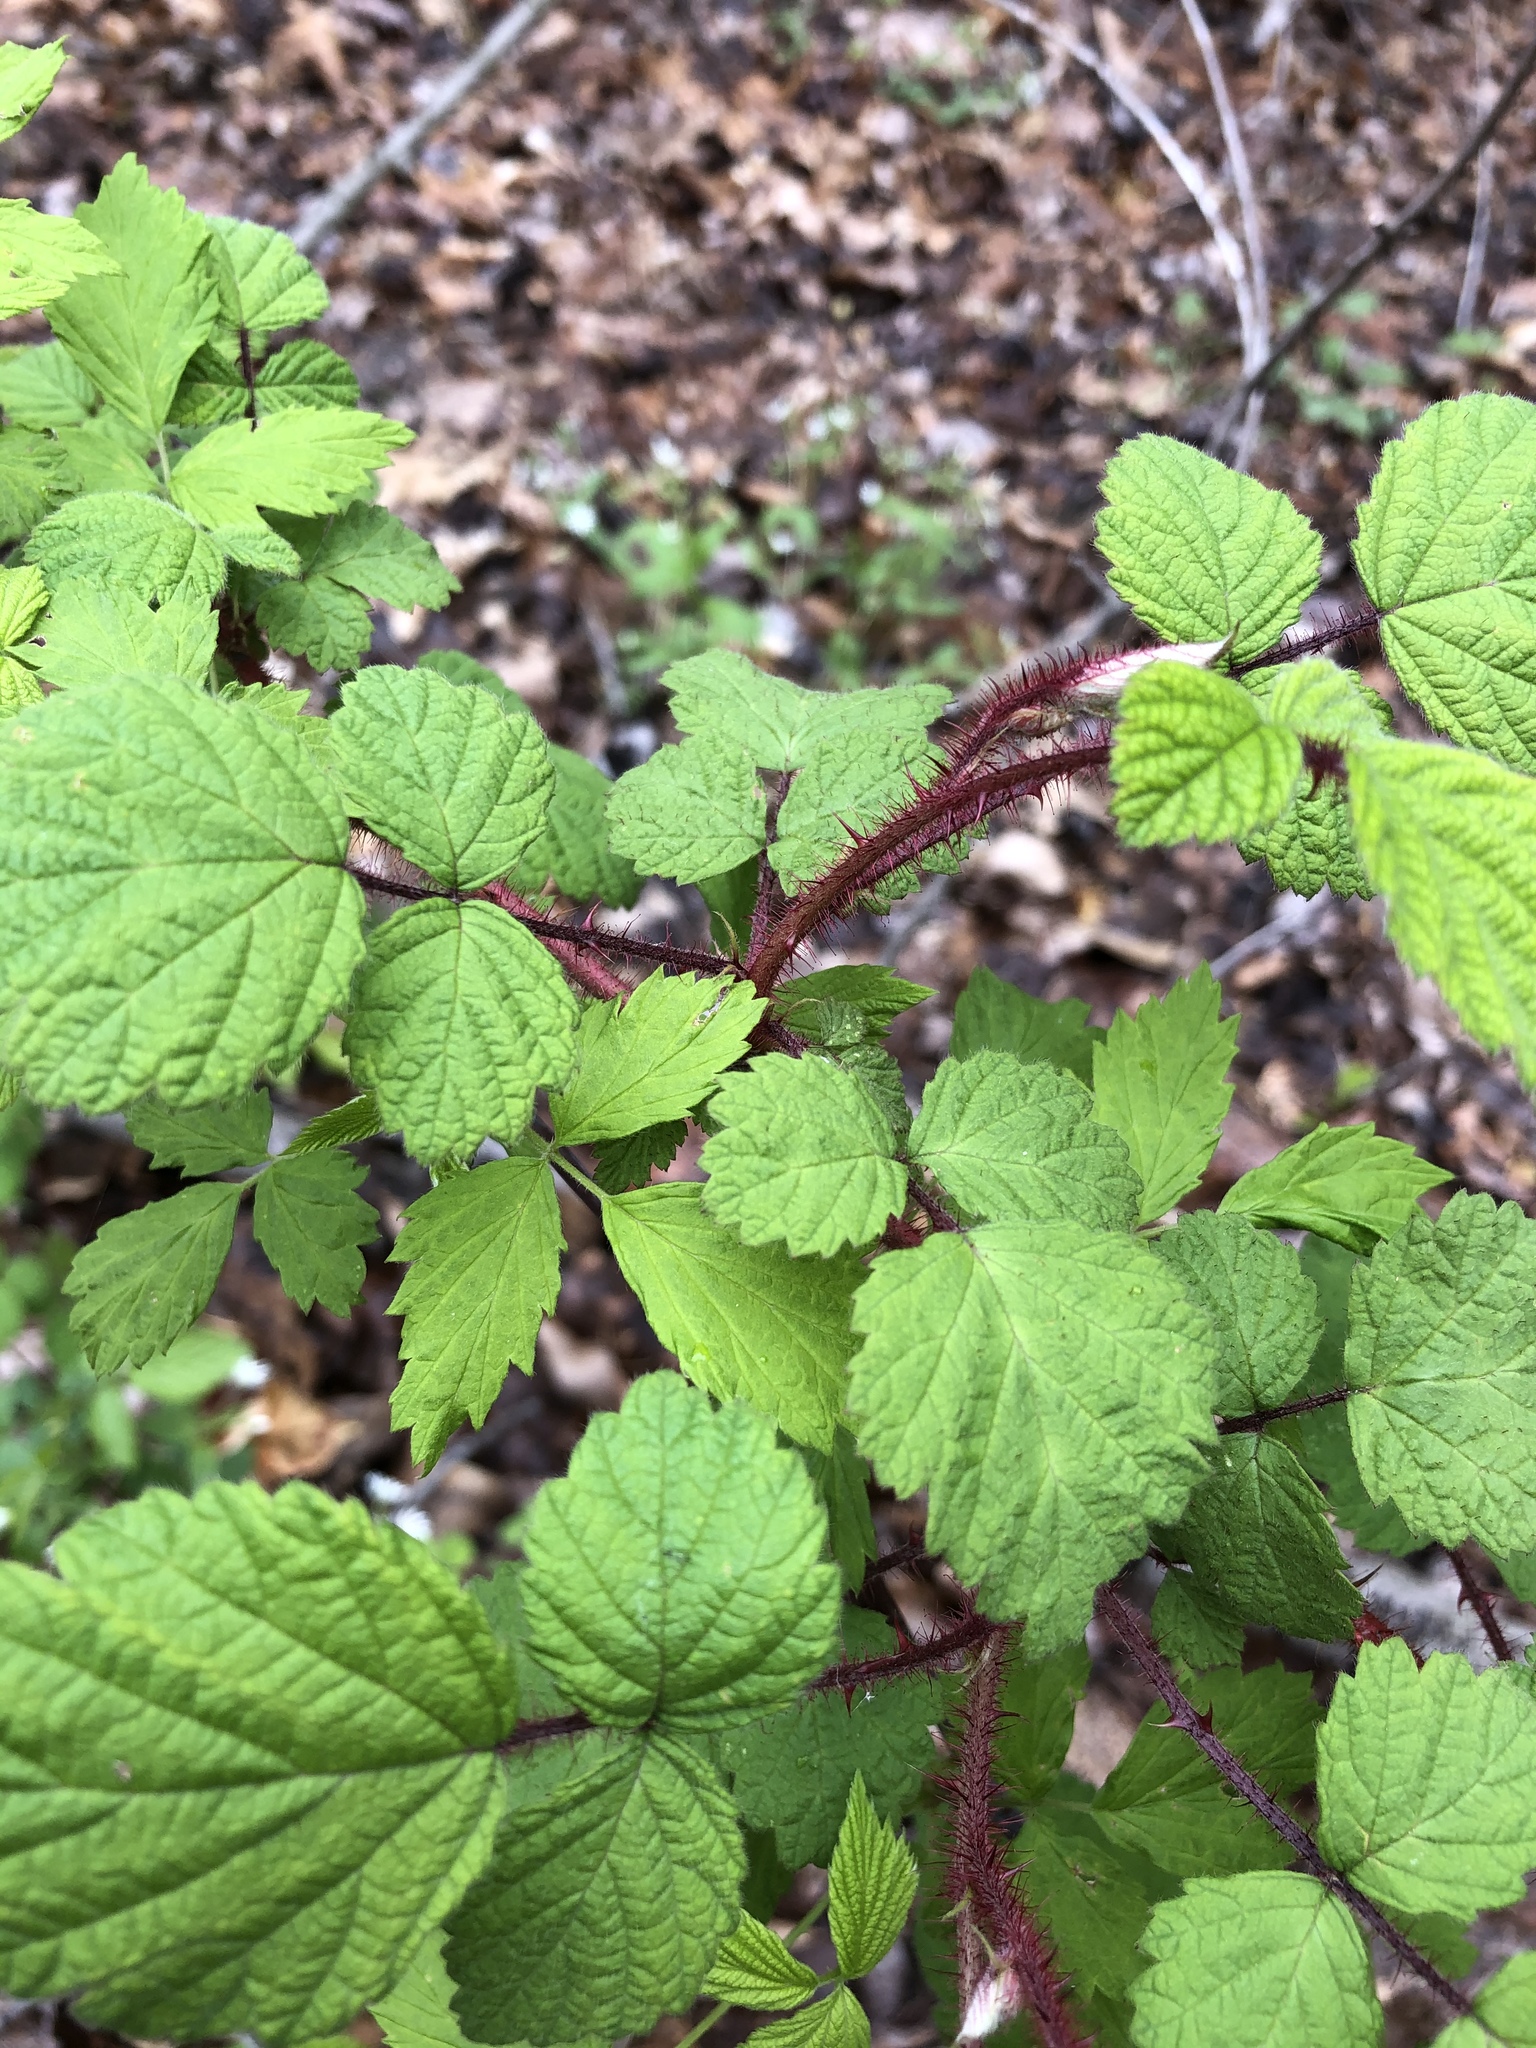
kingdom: Plantae
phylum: Tracheophyta
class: Magnoliopsida
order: Rosales
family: Rosaceae
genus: Rubus
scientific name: Rubus phoenicolasius
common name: Japanese wineberry
